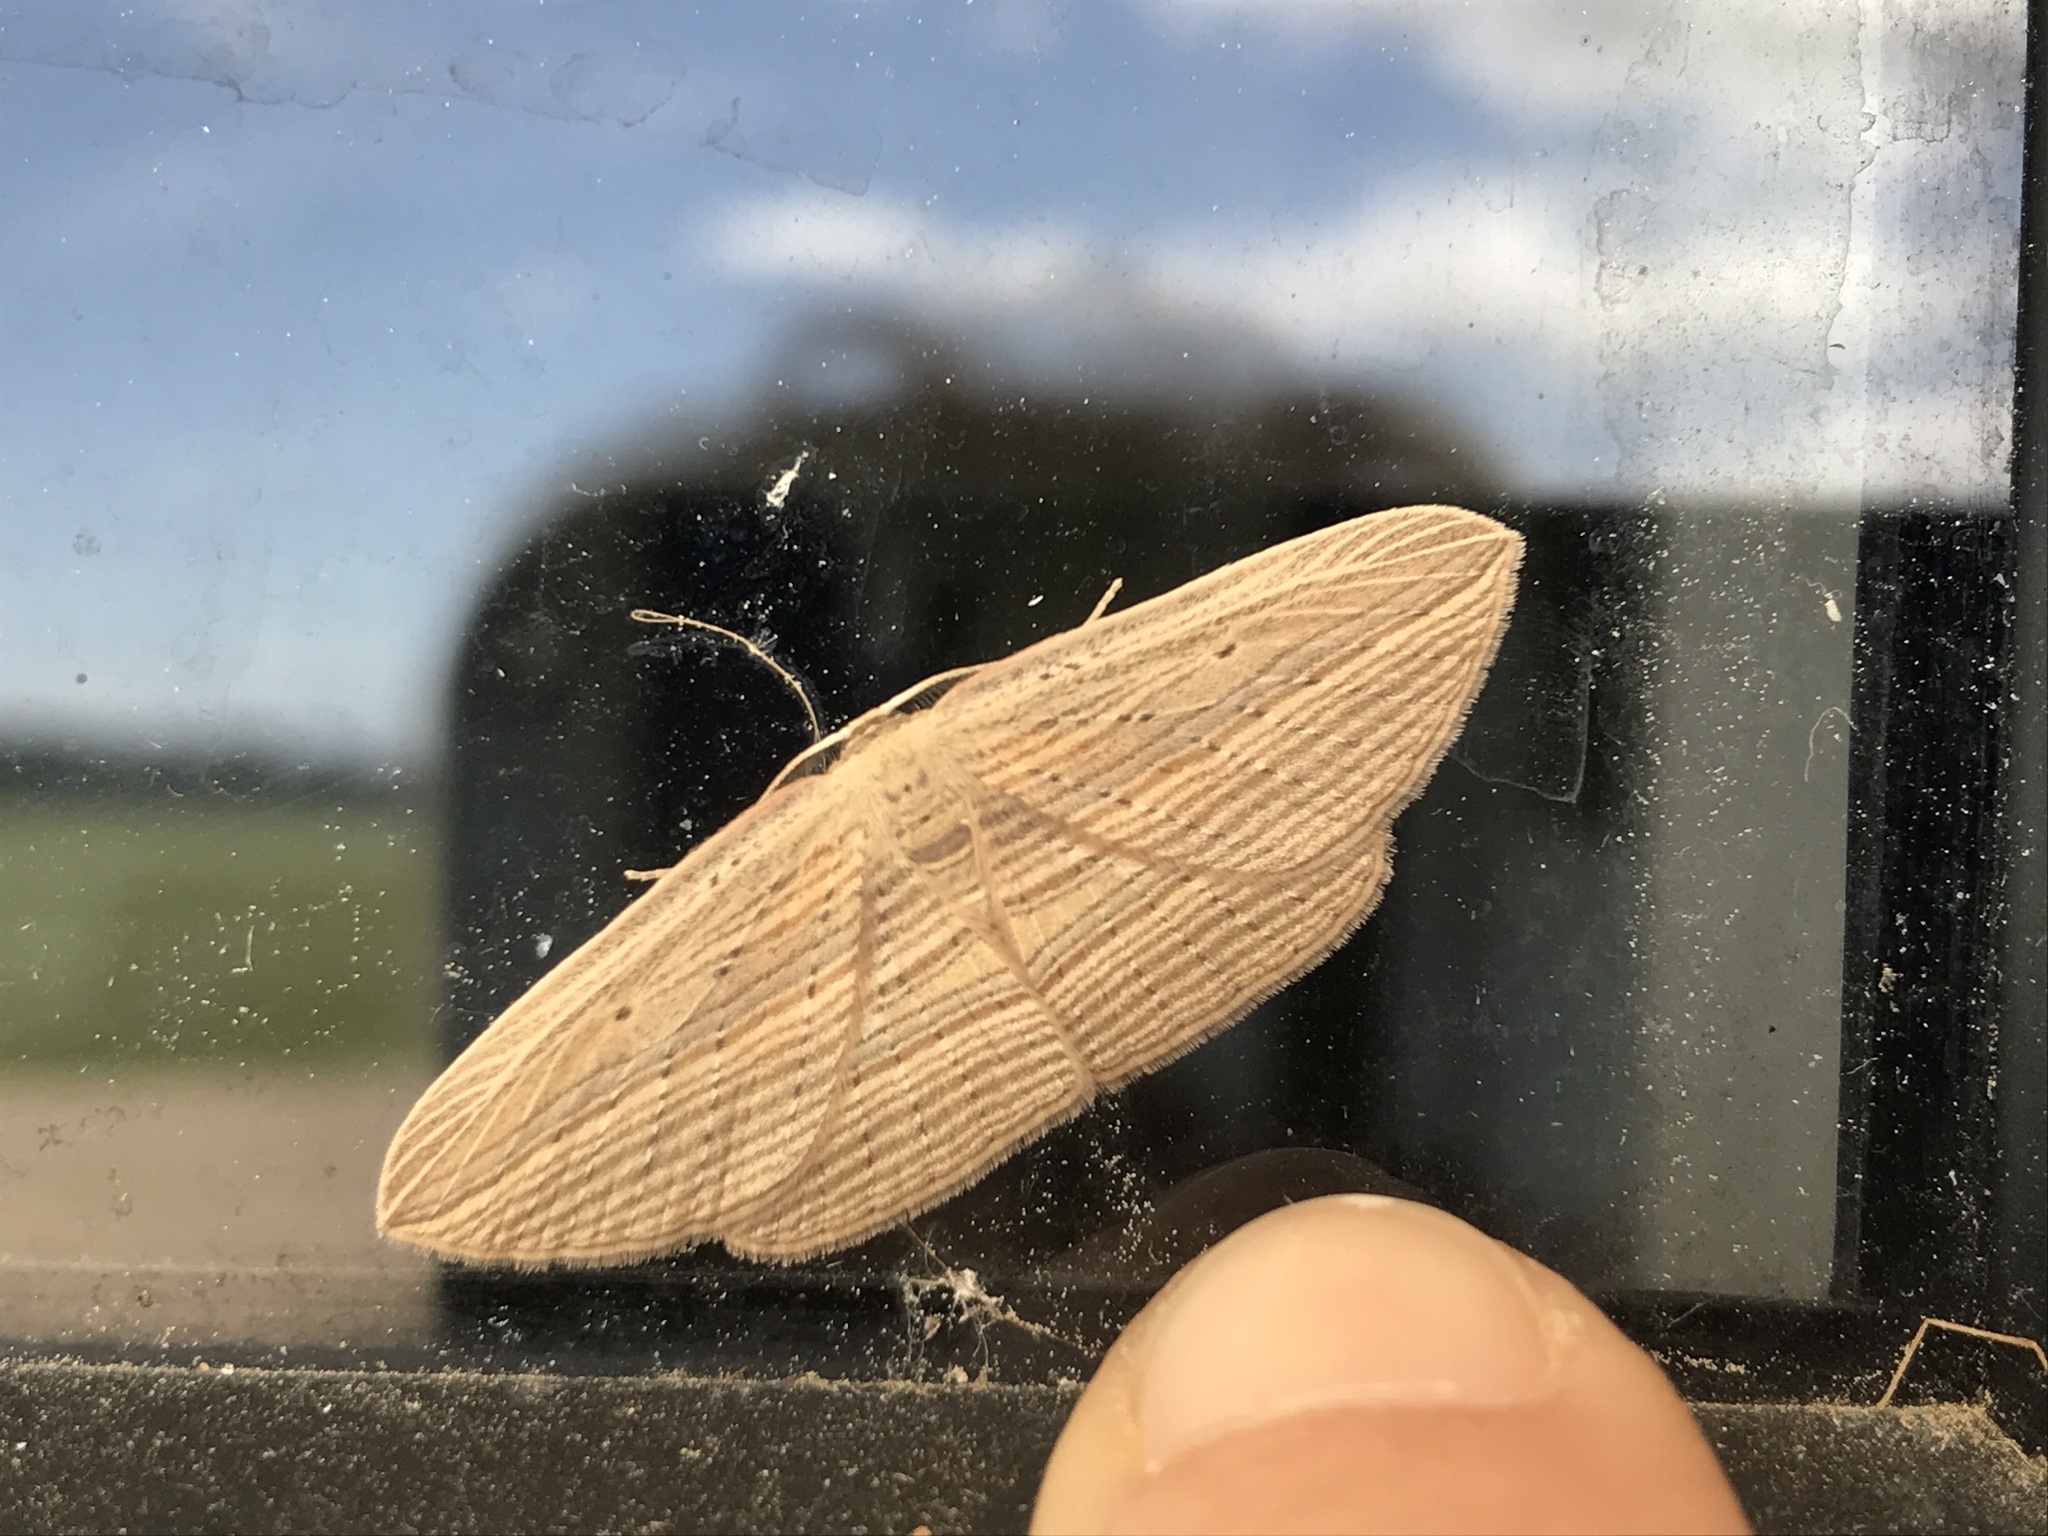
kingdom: Animalia
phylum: Arthropoda
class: Insecta
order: Lepidoptera
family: Geometridae
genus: Epiphryne
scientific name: Epiphryne verriculata
